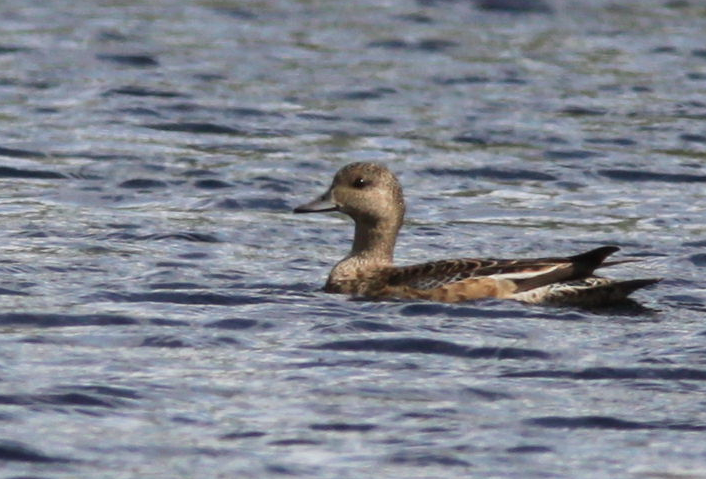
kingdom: Animalia
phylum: Chordata
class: Aves
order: Anseriformes
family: Anatidae
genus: Mareca
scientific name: Mareca penelope
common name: Eurasian wigeon
